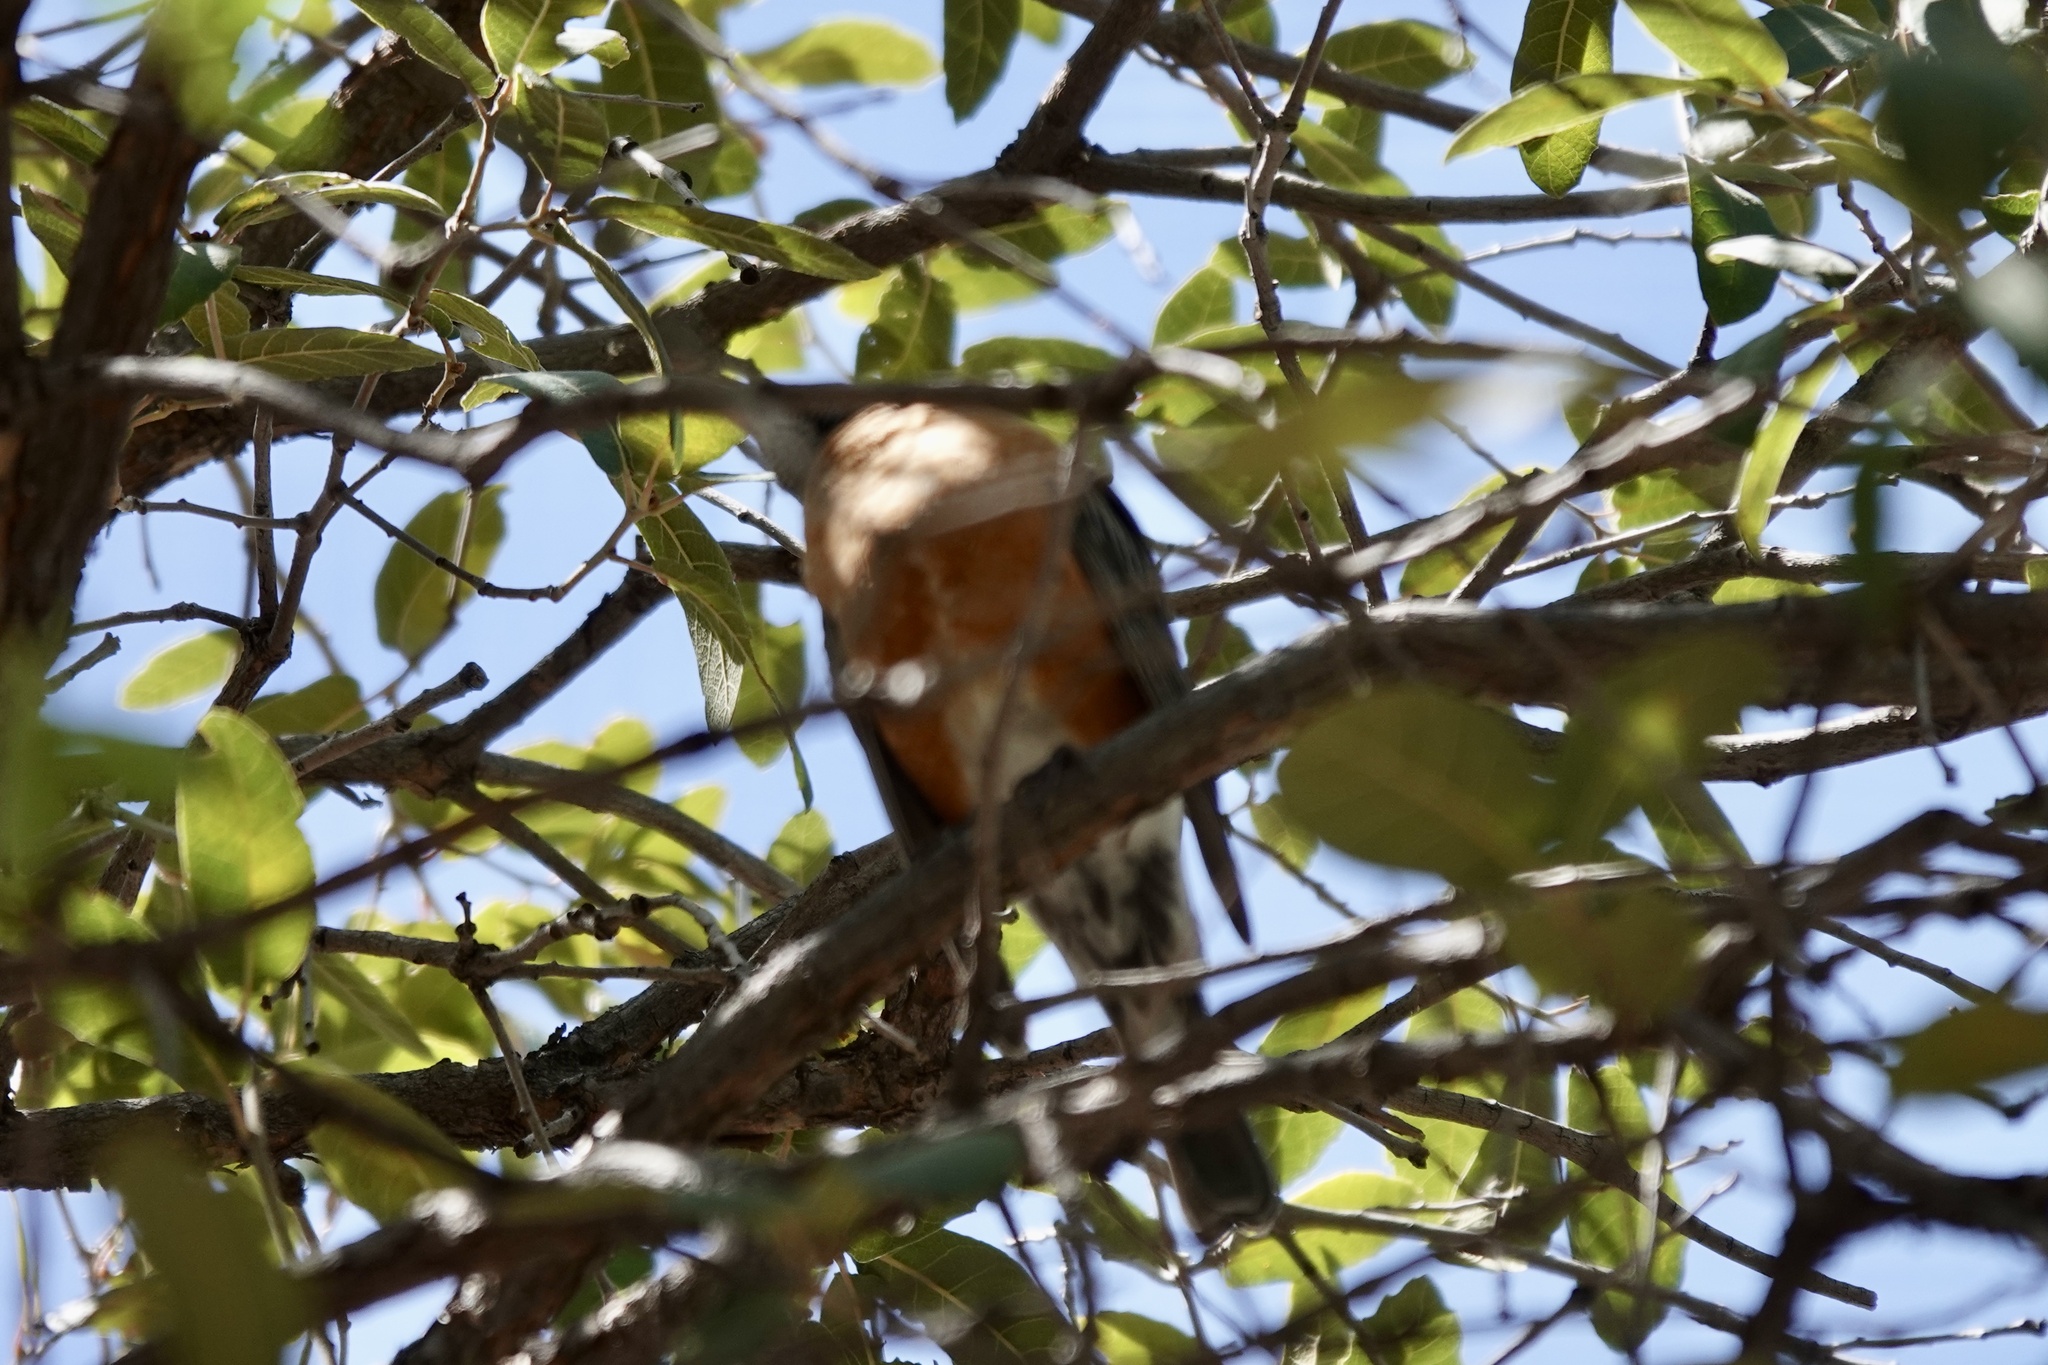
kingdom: Animalia
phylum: Chordata
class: Aves
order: Passeriformes
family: Turdidae
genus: Turdus
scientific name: Turdus migratorius
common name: American robin
